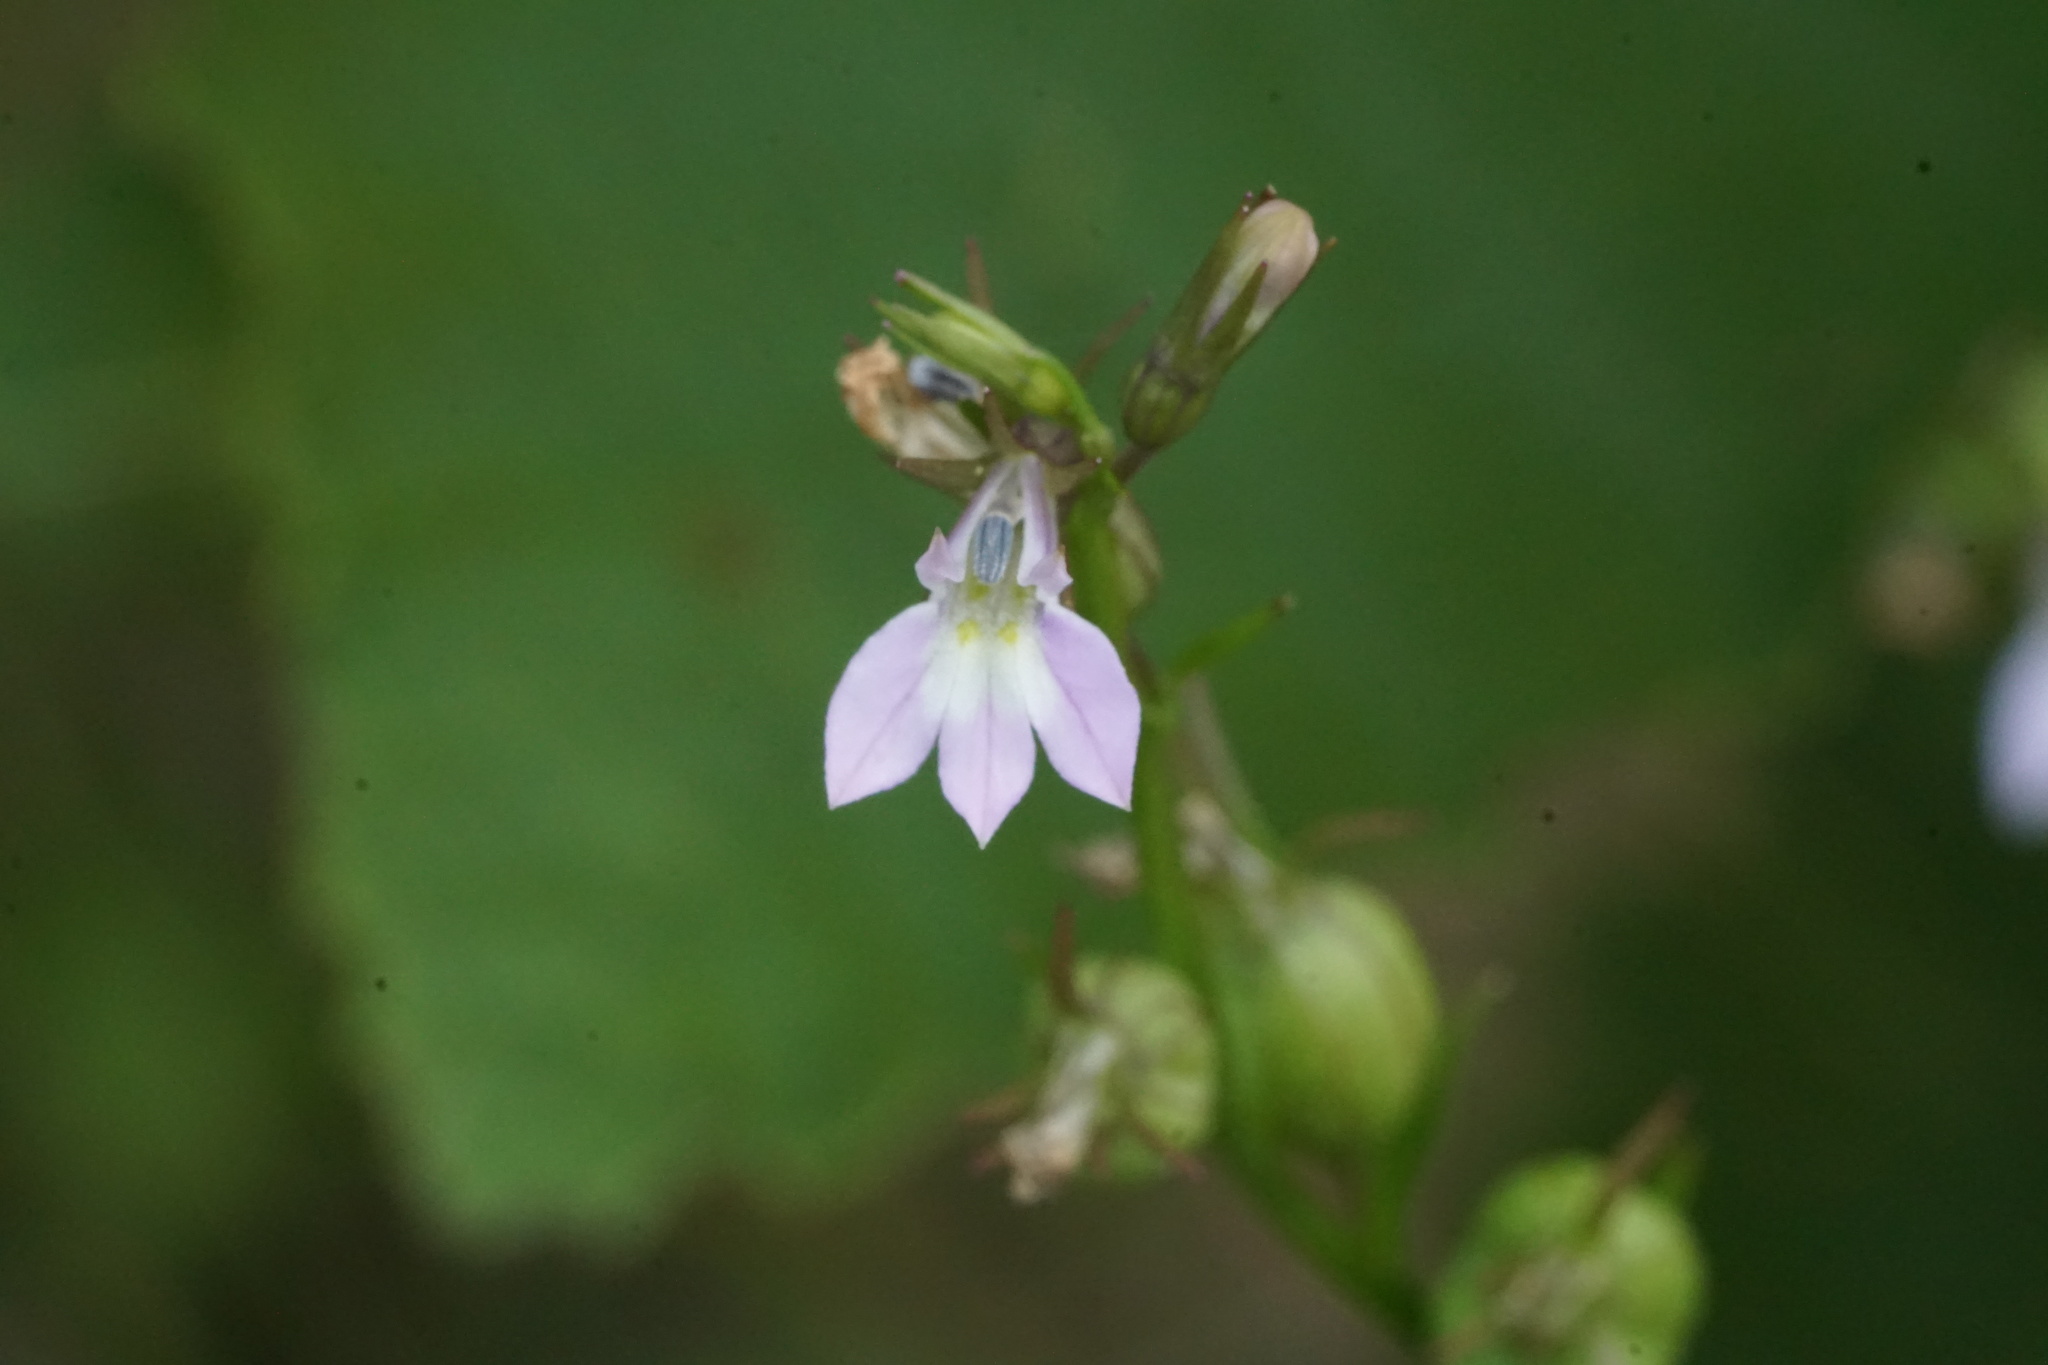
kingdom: Plantae
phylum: Tracheophyta
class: Magnoliopsida
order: Asterales
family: Campanulaceae
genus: Lobelia
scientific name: Lobelia inflata
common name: Indian tobacco
